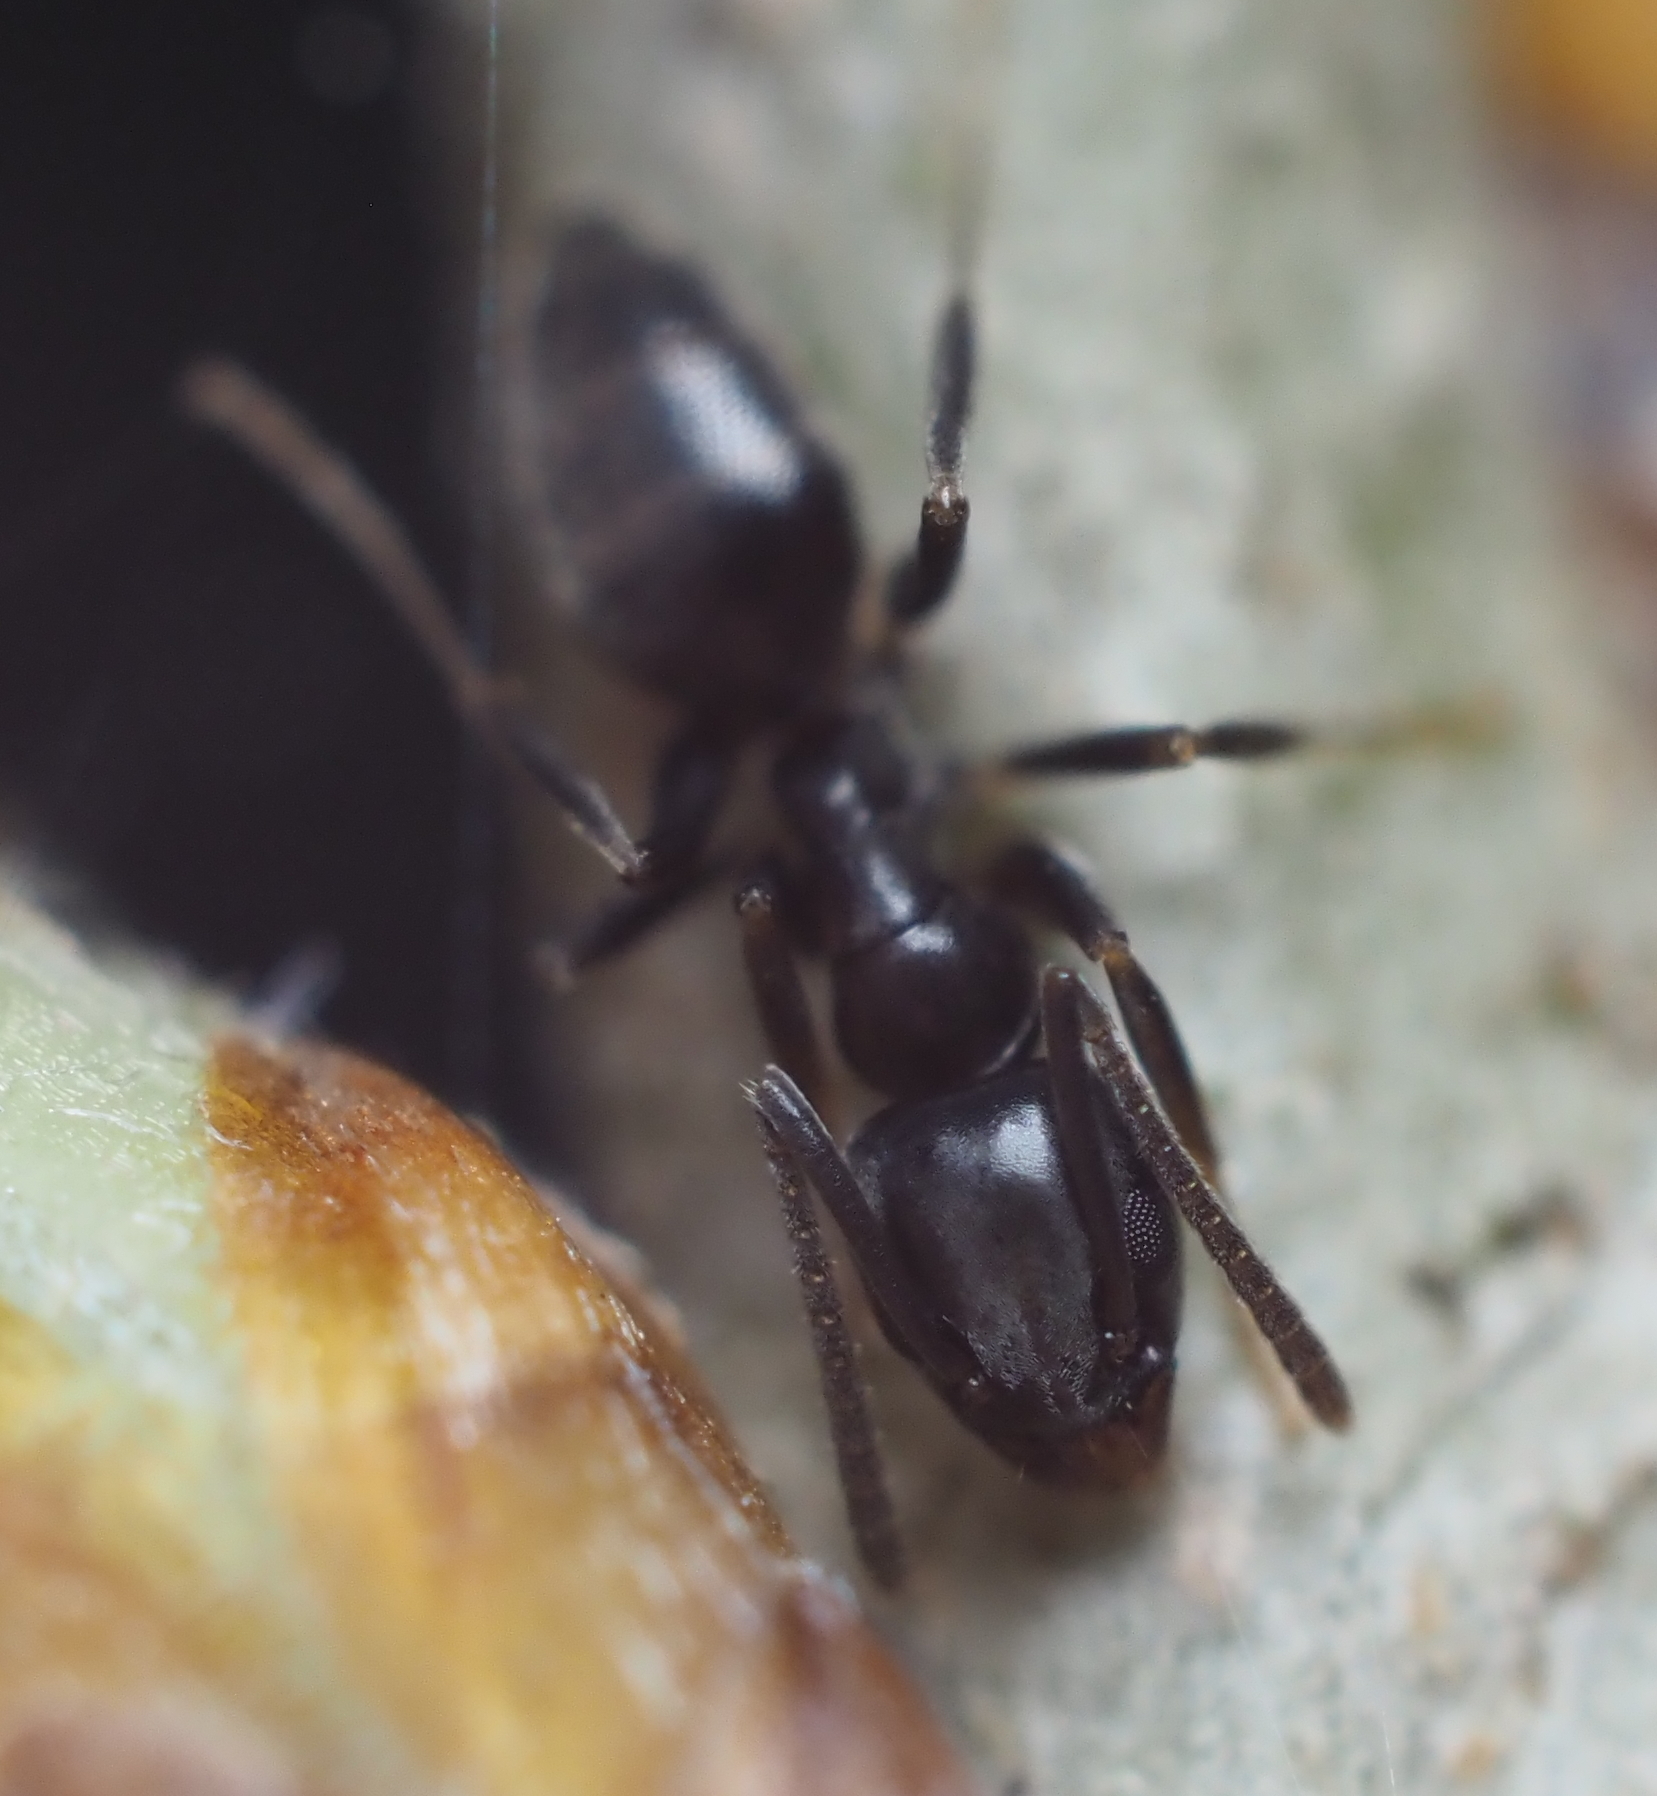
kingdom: Animalia
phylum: Arthropoda
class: Insecta
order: Hymenoptera
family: Formicidae
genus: Tapinoma
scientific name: Tapinoma sessile
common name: Odorous house ant
